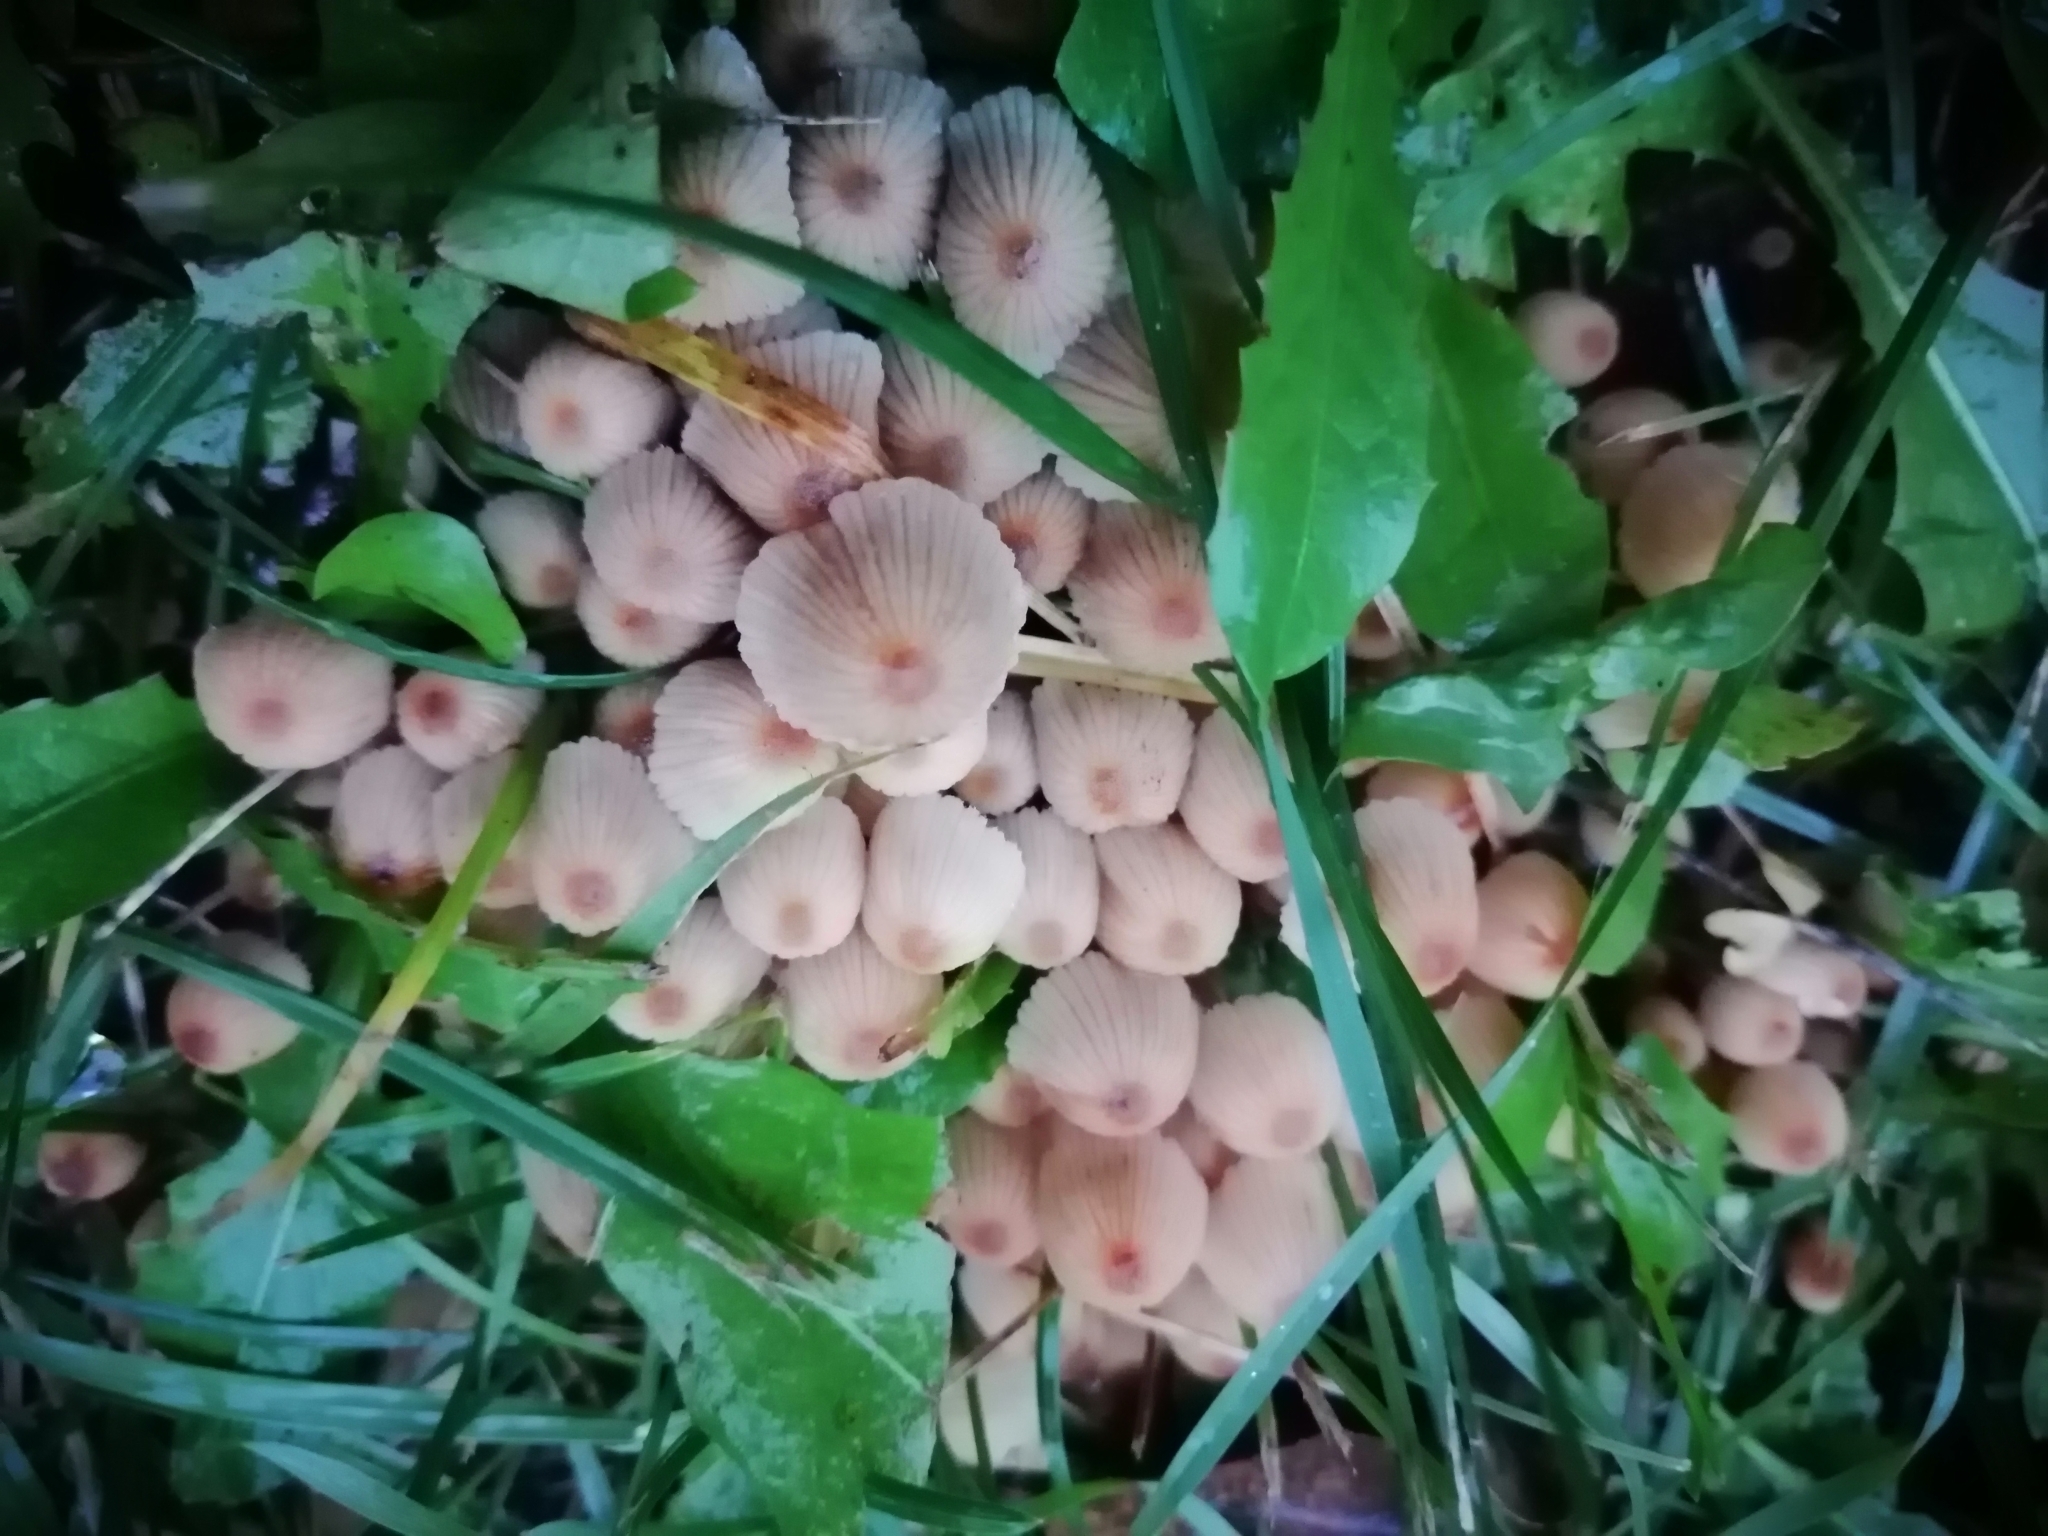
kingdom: Fungi
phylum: Basidiomycota
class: Agaricomycetes
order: Agaricales
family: Psathyrellaceae
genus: Coprinellus
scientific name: Coprinellus disseminatus
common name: Fairies' bonnets
